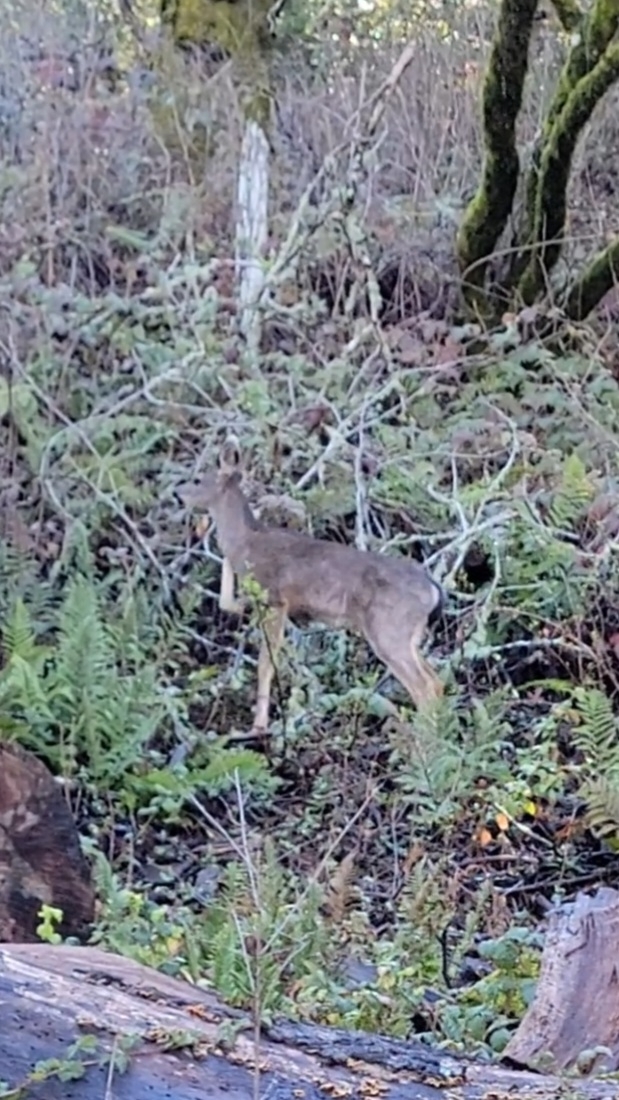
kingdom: Animalia
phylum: Chordata
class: Mammalia
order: Artiodactyla
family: Cervidae
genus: Odocoileus
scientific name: Odocoileus hemionus
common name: Mule deer
